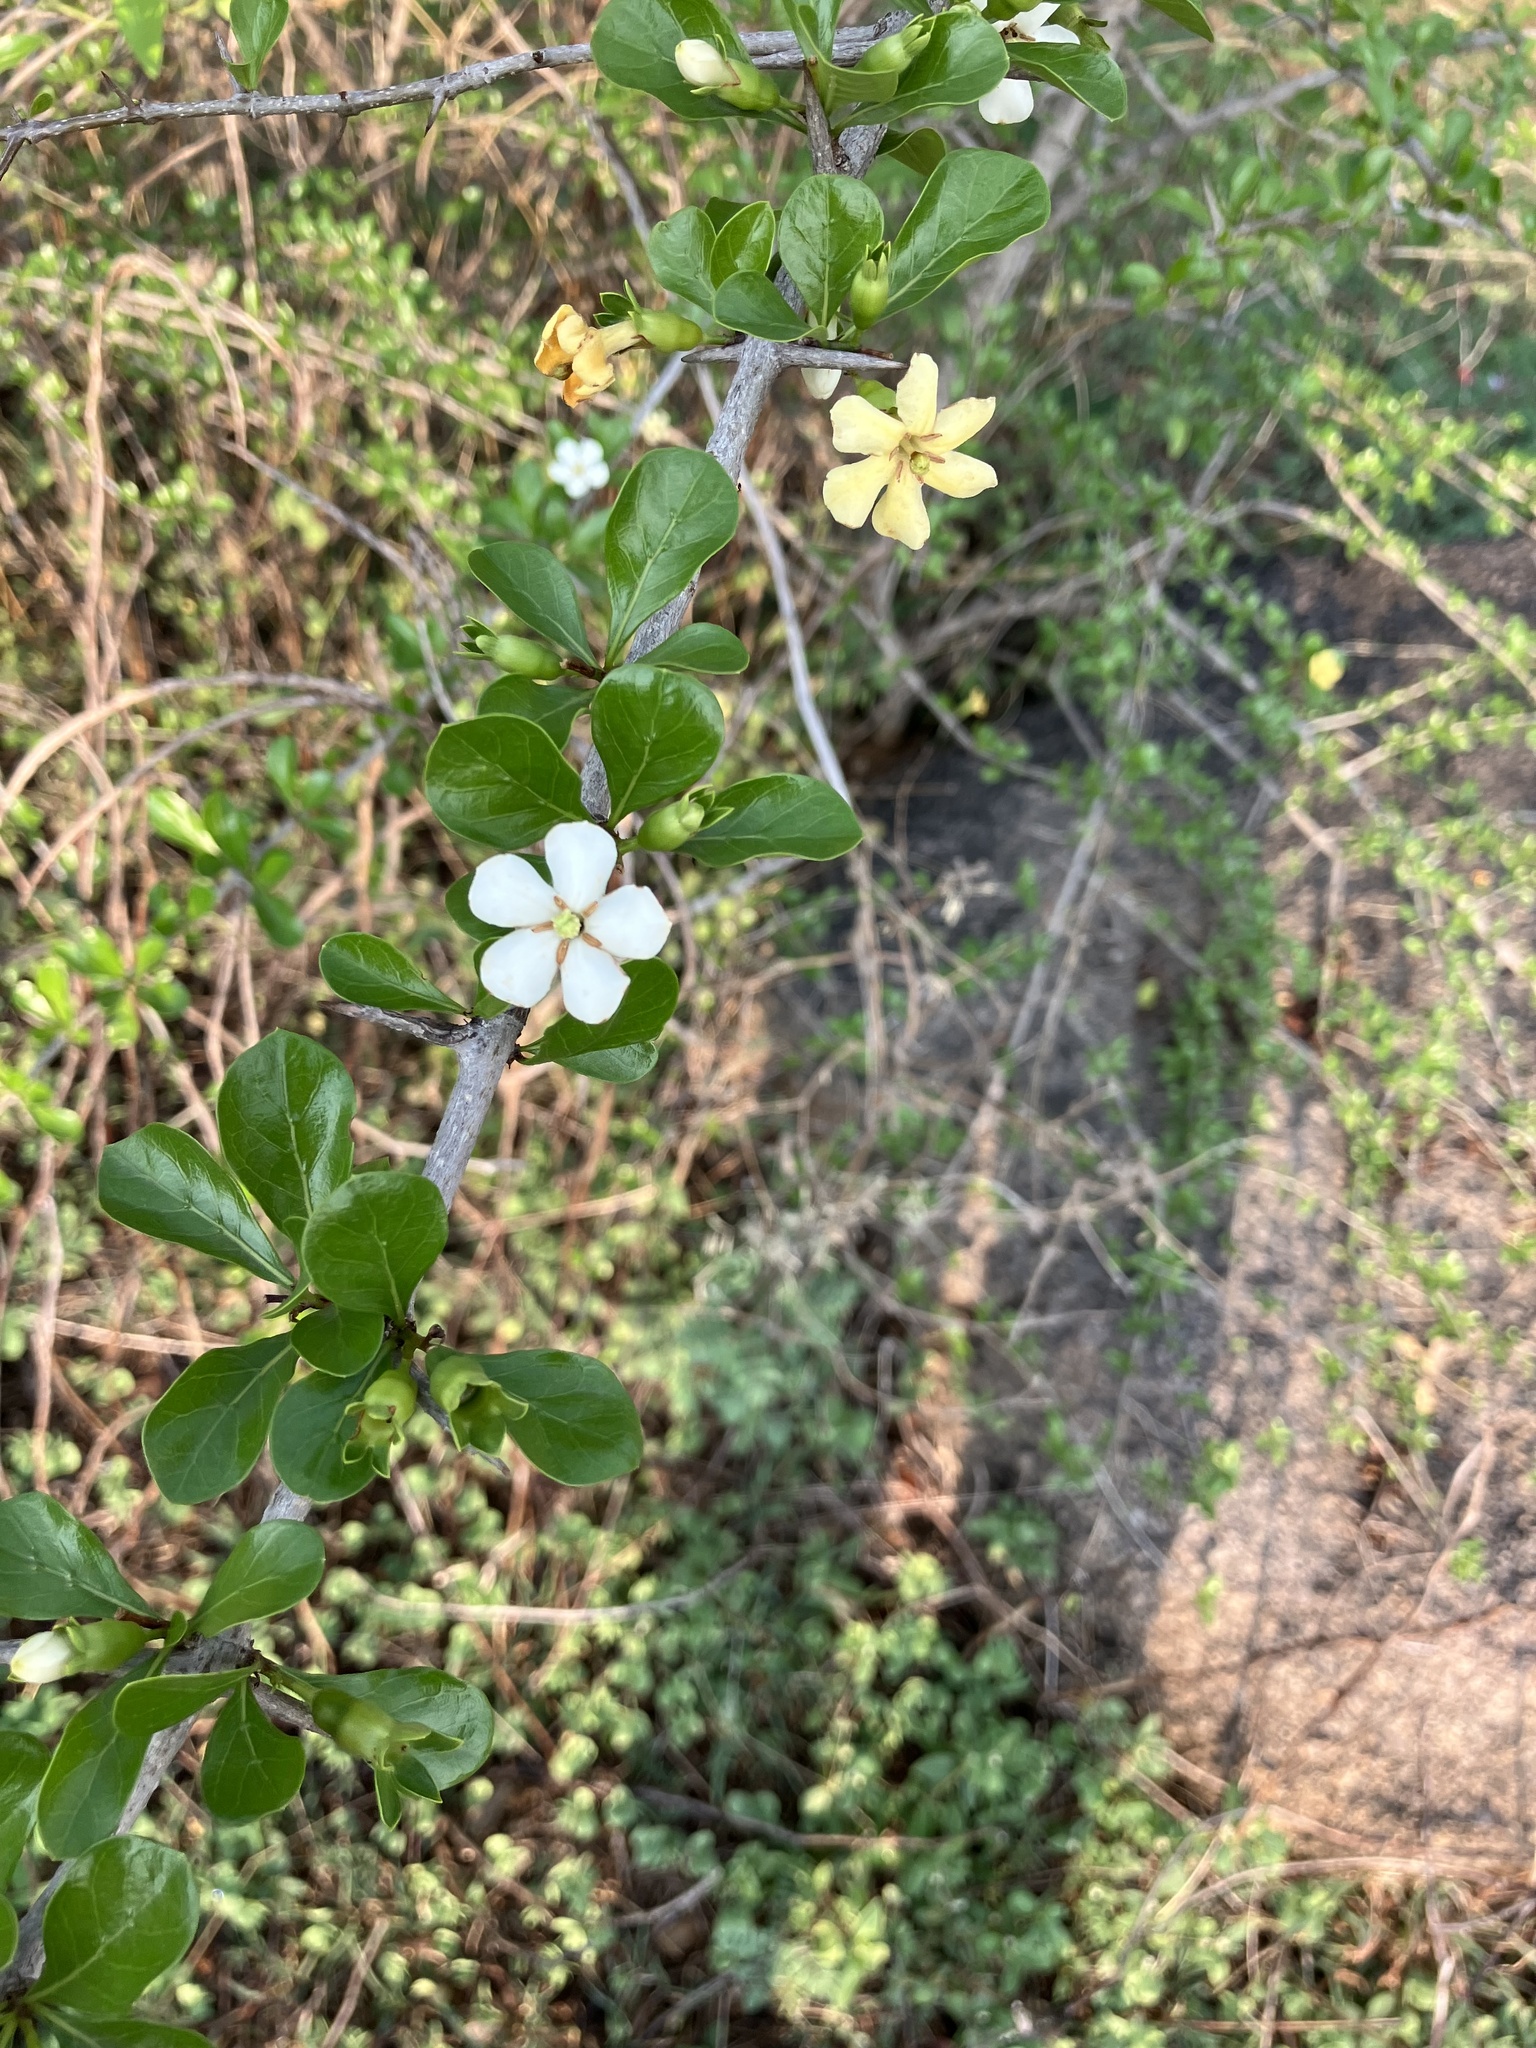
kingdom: Plantae
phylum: Tracheophyta
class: Magnoliopsida
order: Gentianales
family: Rubiaceae
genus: Catunaregam
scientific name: Catunaregam spinosa
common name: Emetic-nut
